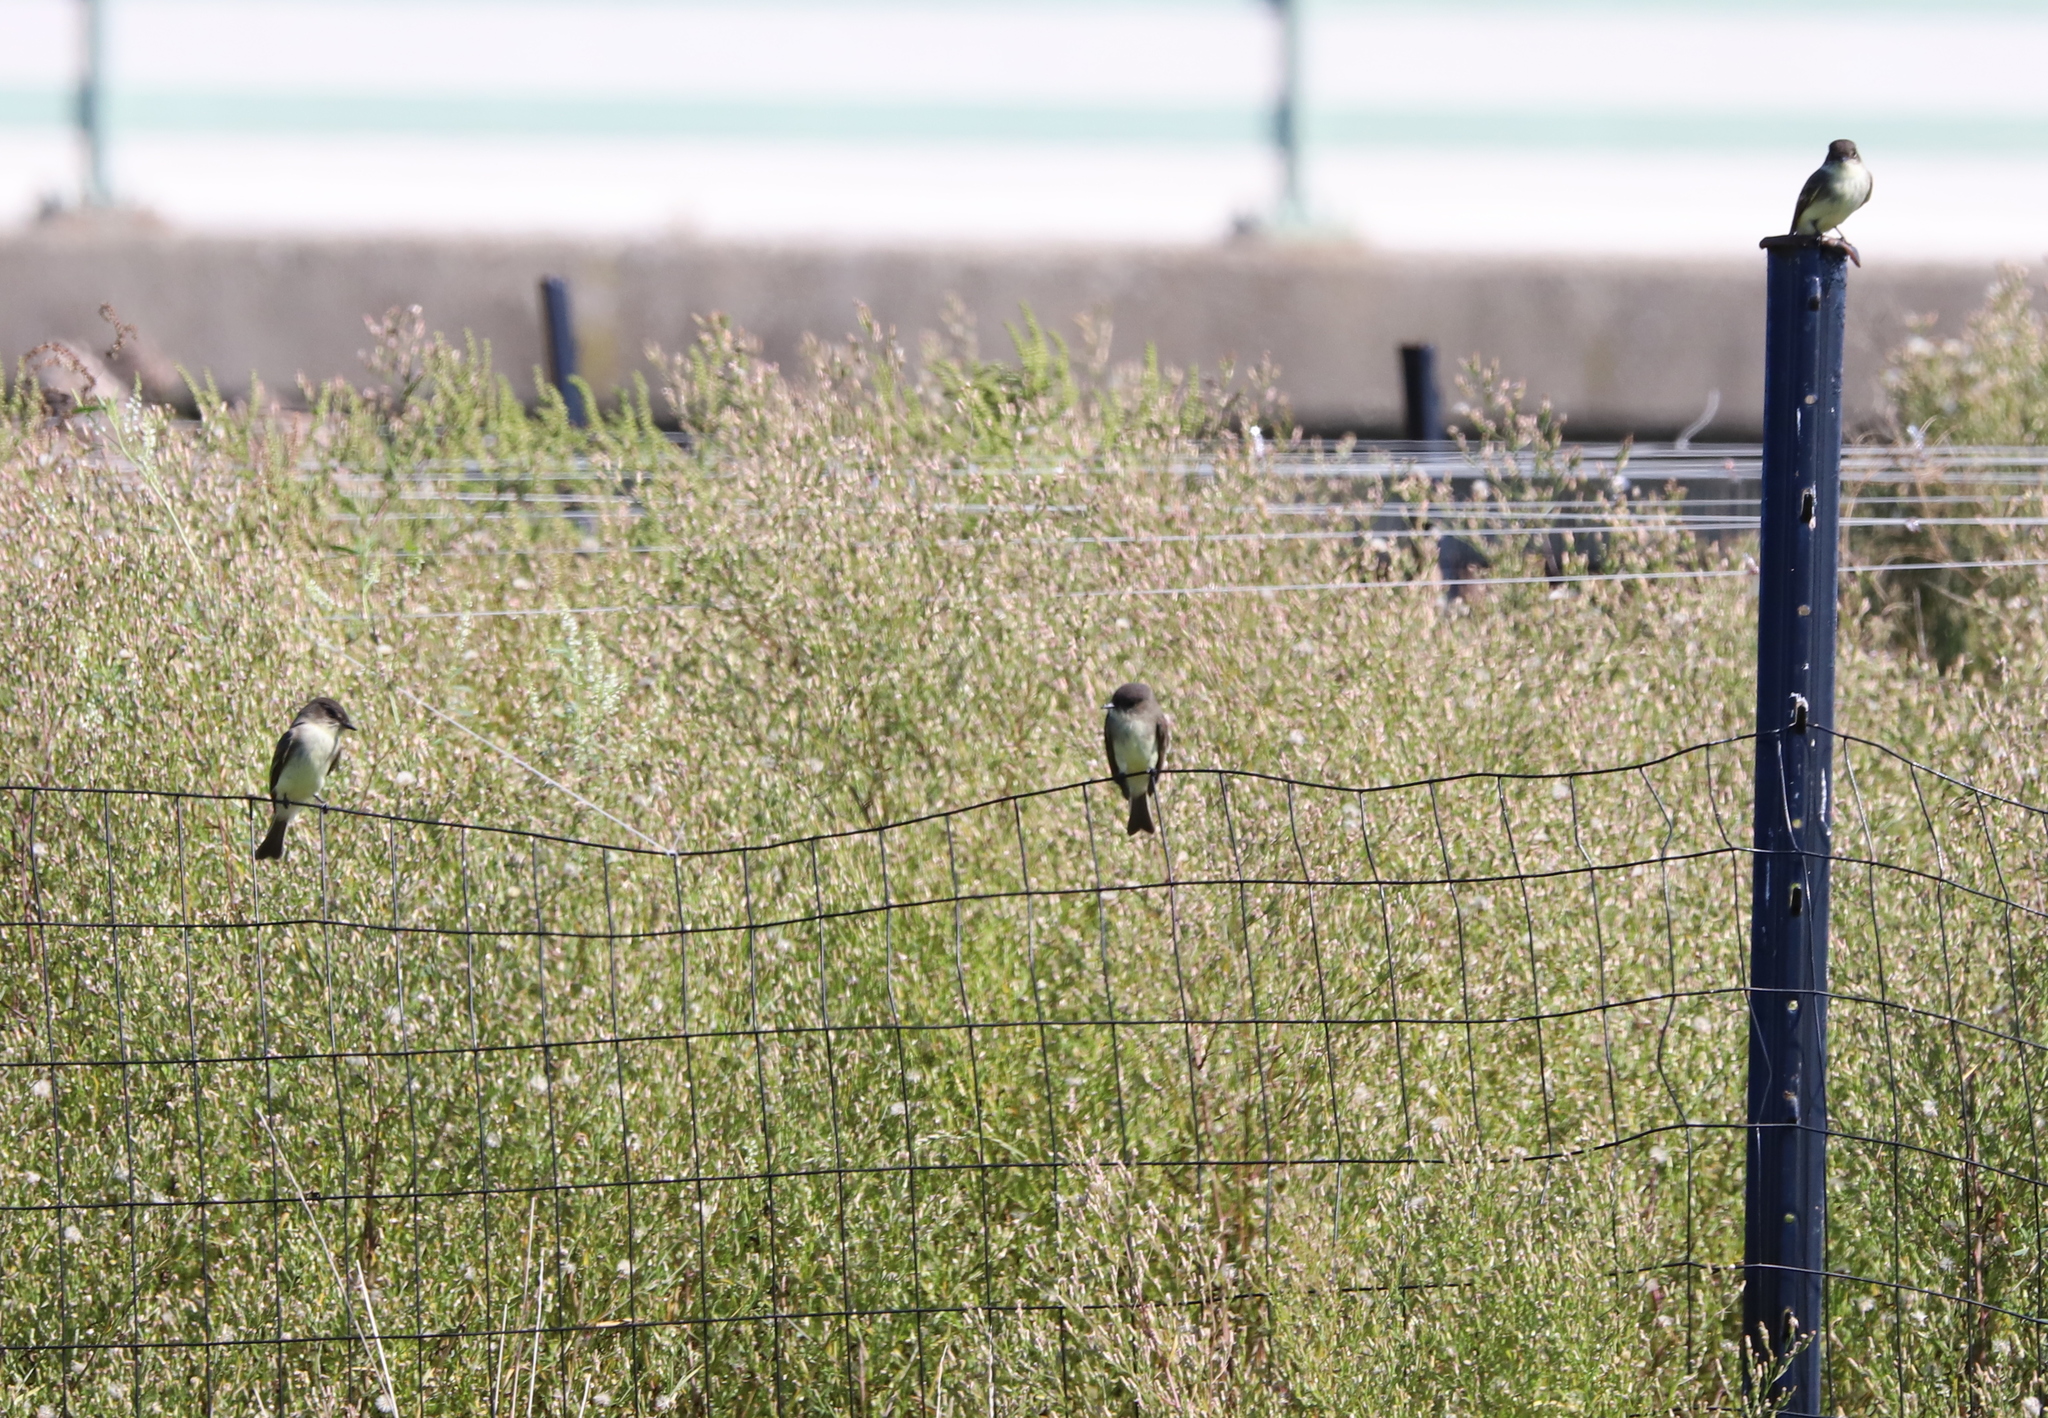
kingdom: Animalia
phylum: Chordata
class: Aves
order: Passeriformes
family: Tyrannidae
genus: Sayornis
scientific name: Sayornis phoebe
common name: Eastern phoebe
